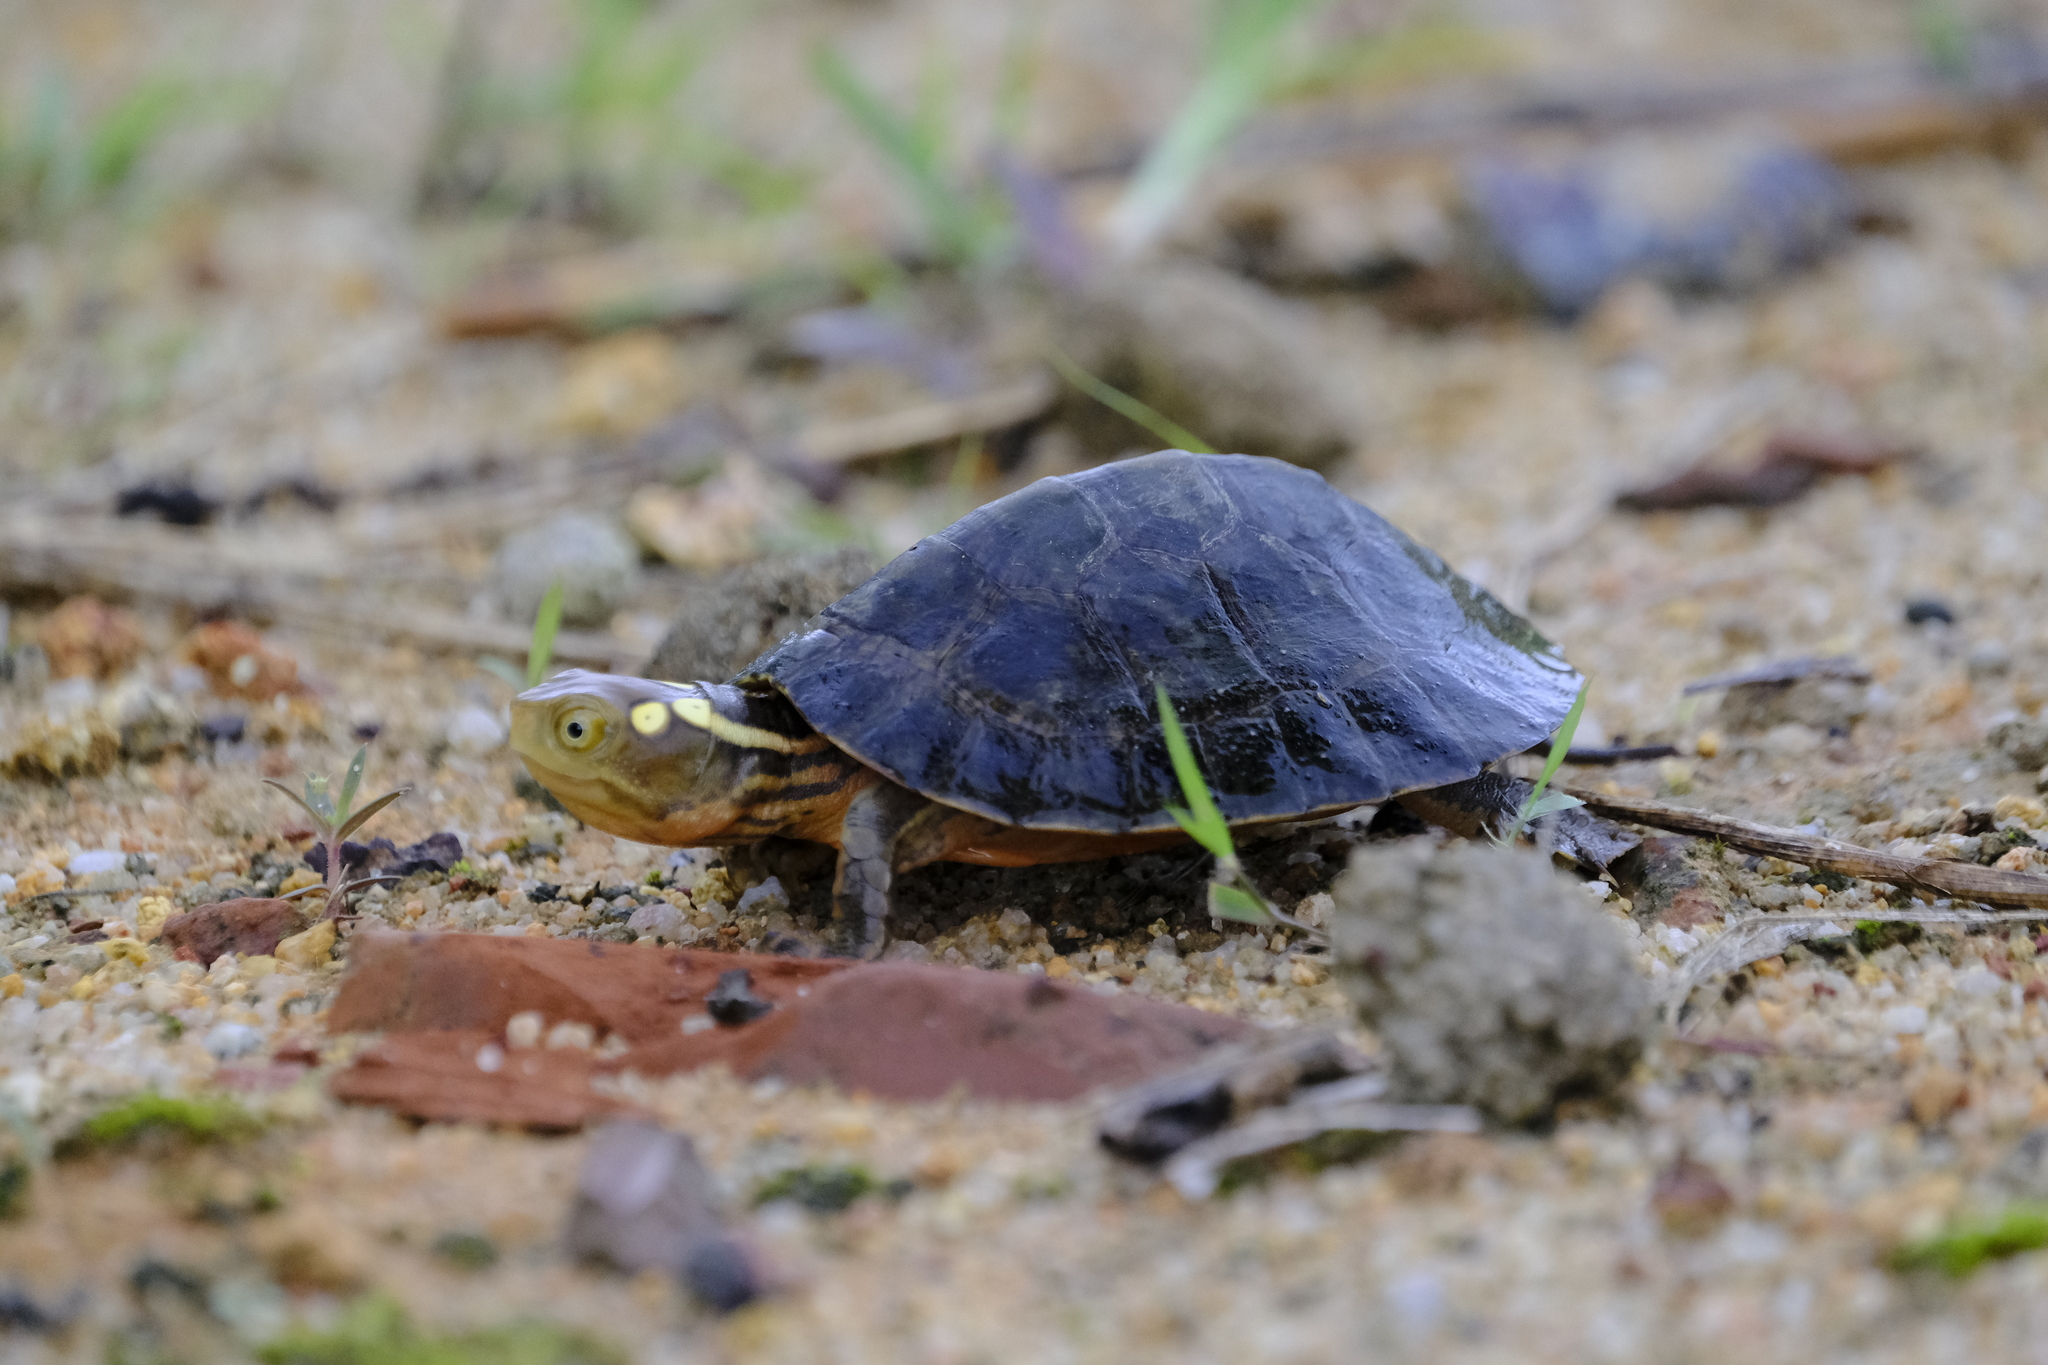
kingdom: Animalia
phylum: Chordata
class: Testudines
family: Geoemydidae
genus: Sacalia
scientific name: Sacalia quadriocellata
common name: Four-eyed turtle
